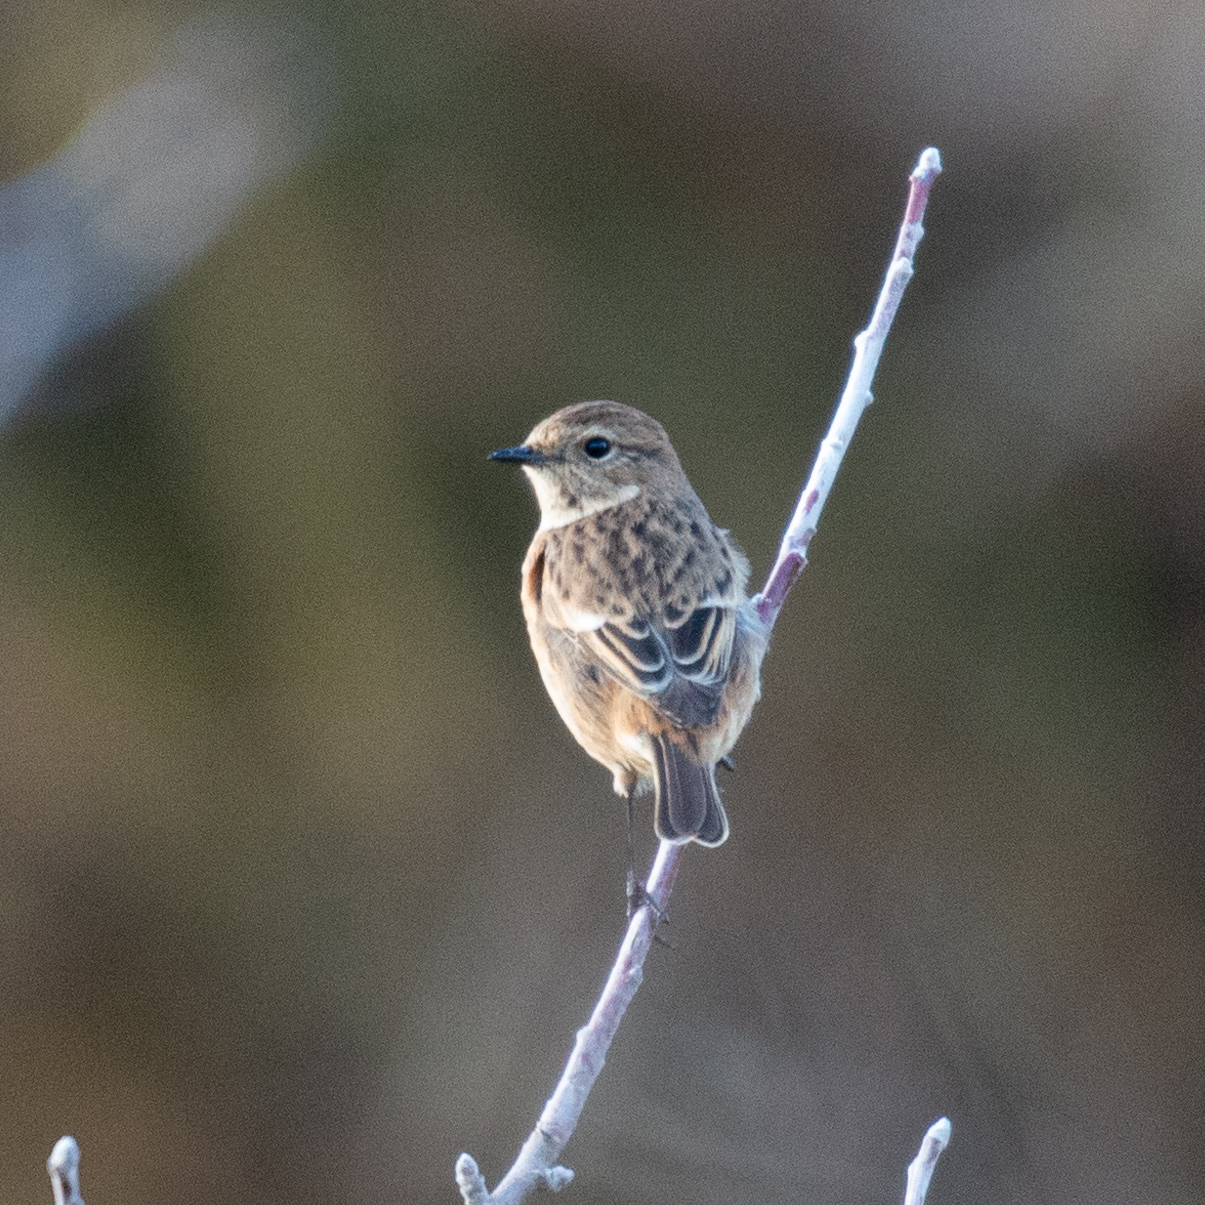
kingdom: Animalia
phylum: Chordata
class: Aves
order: Passeriformes
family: Muscicapidae
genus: Saxicola
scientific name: Saxicola rubicola
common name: European stonechat
